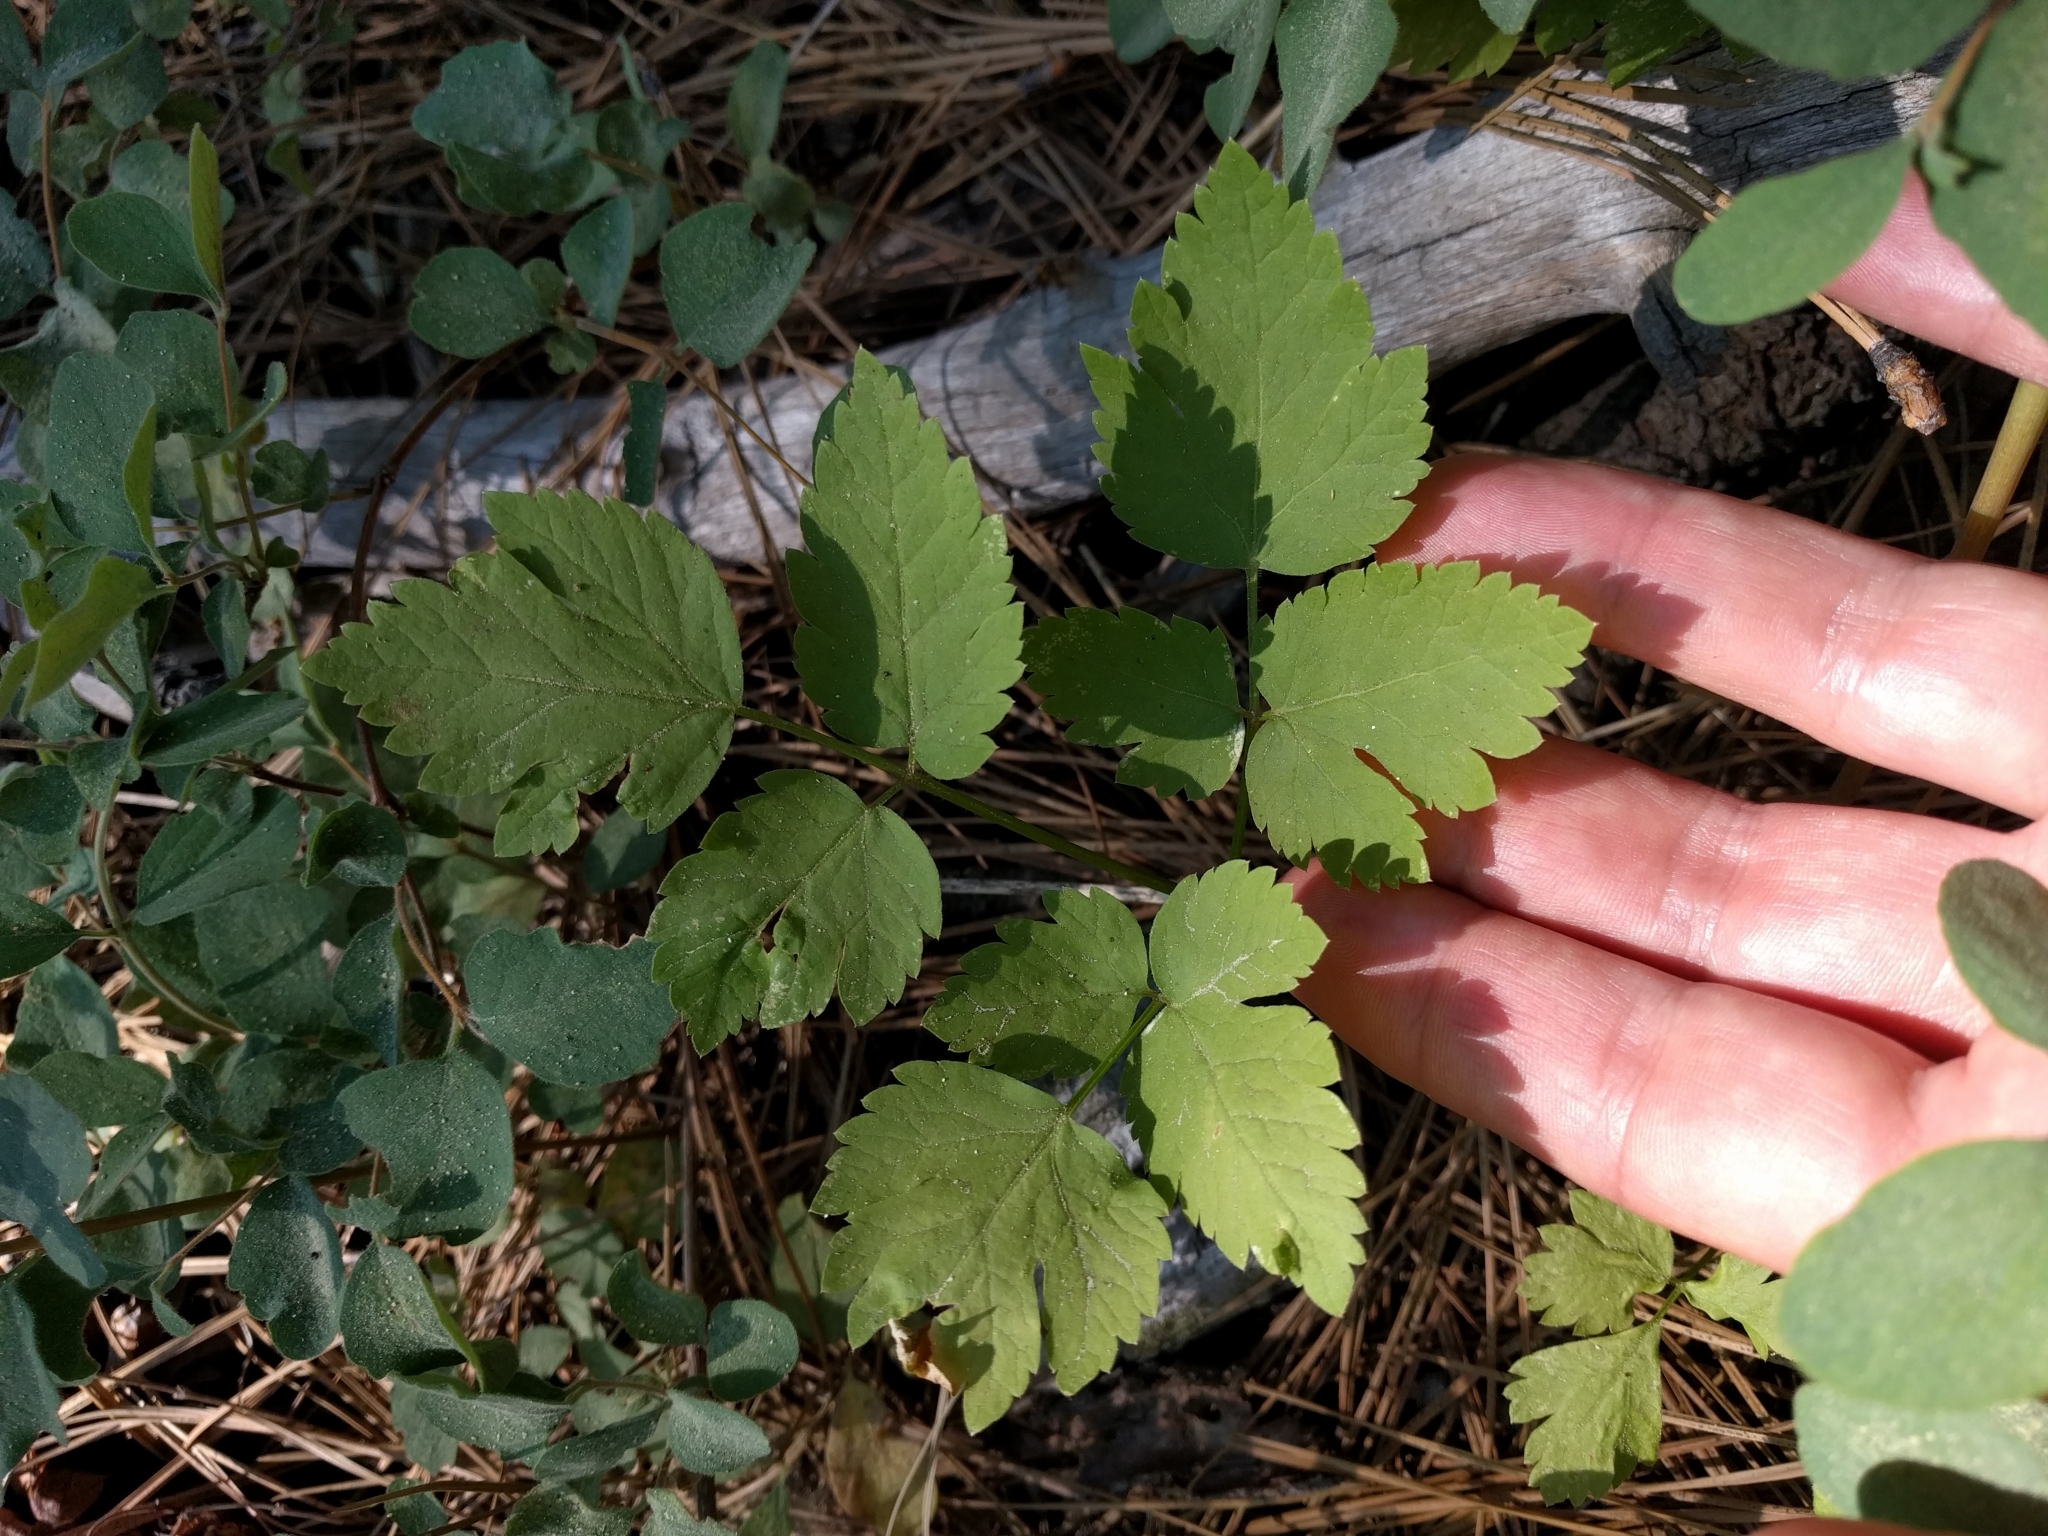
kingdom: Plantae
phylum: Tracheophyta
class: Magnoliopsida
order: Apiales
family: Apiaceae
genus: Osmorhiza
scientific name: Osmorhiza berteroi
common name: Mountain sweet cicely
